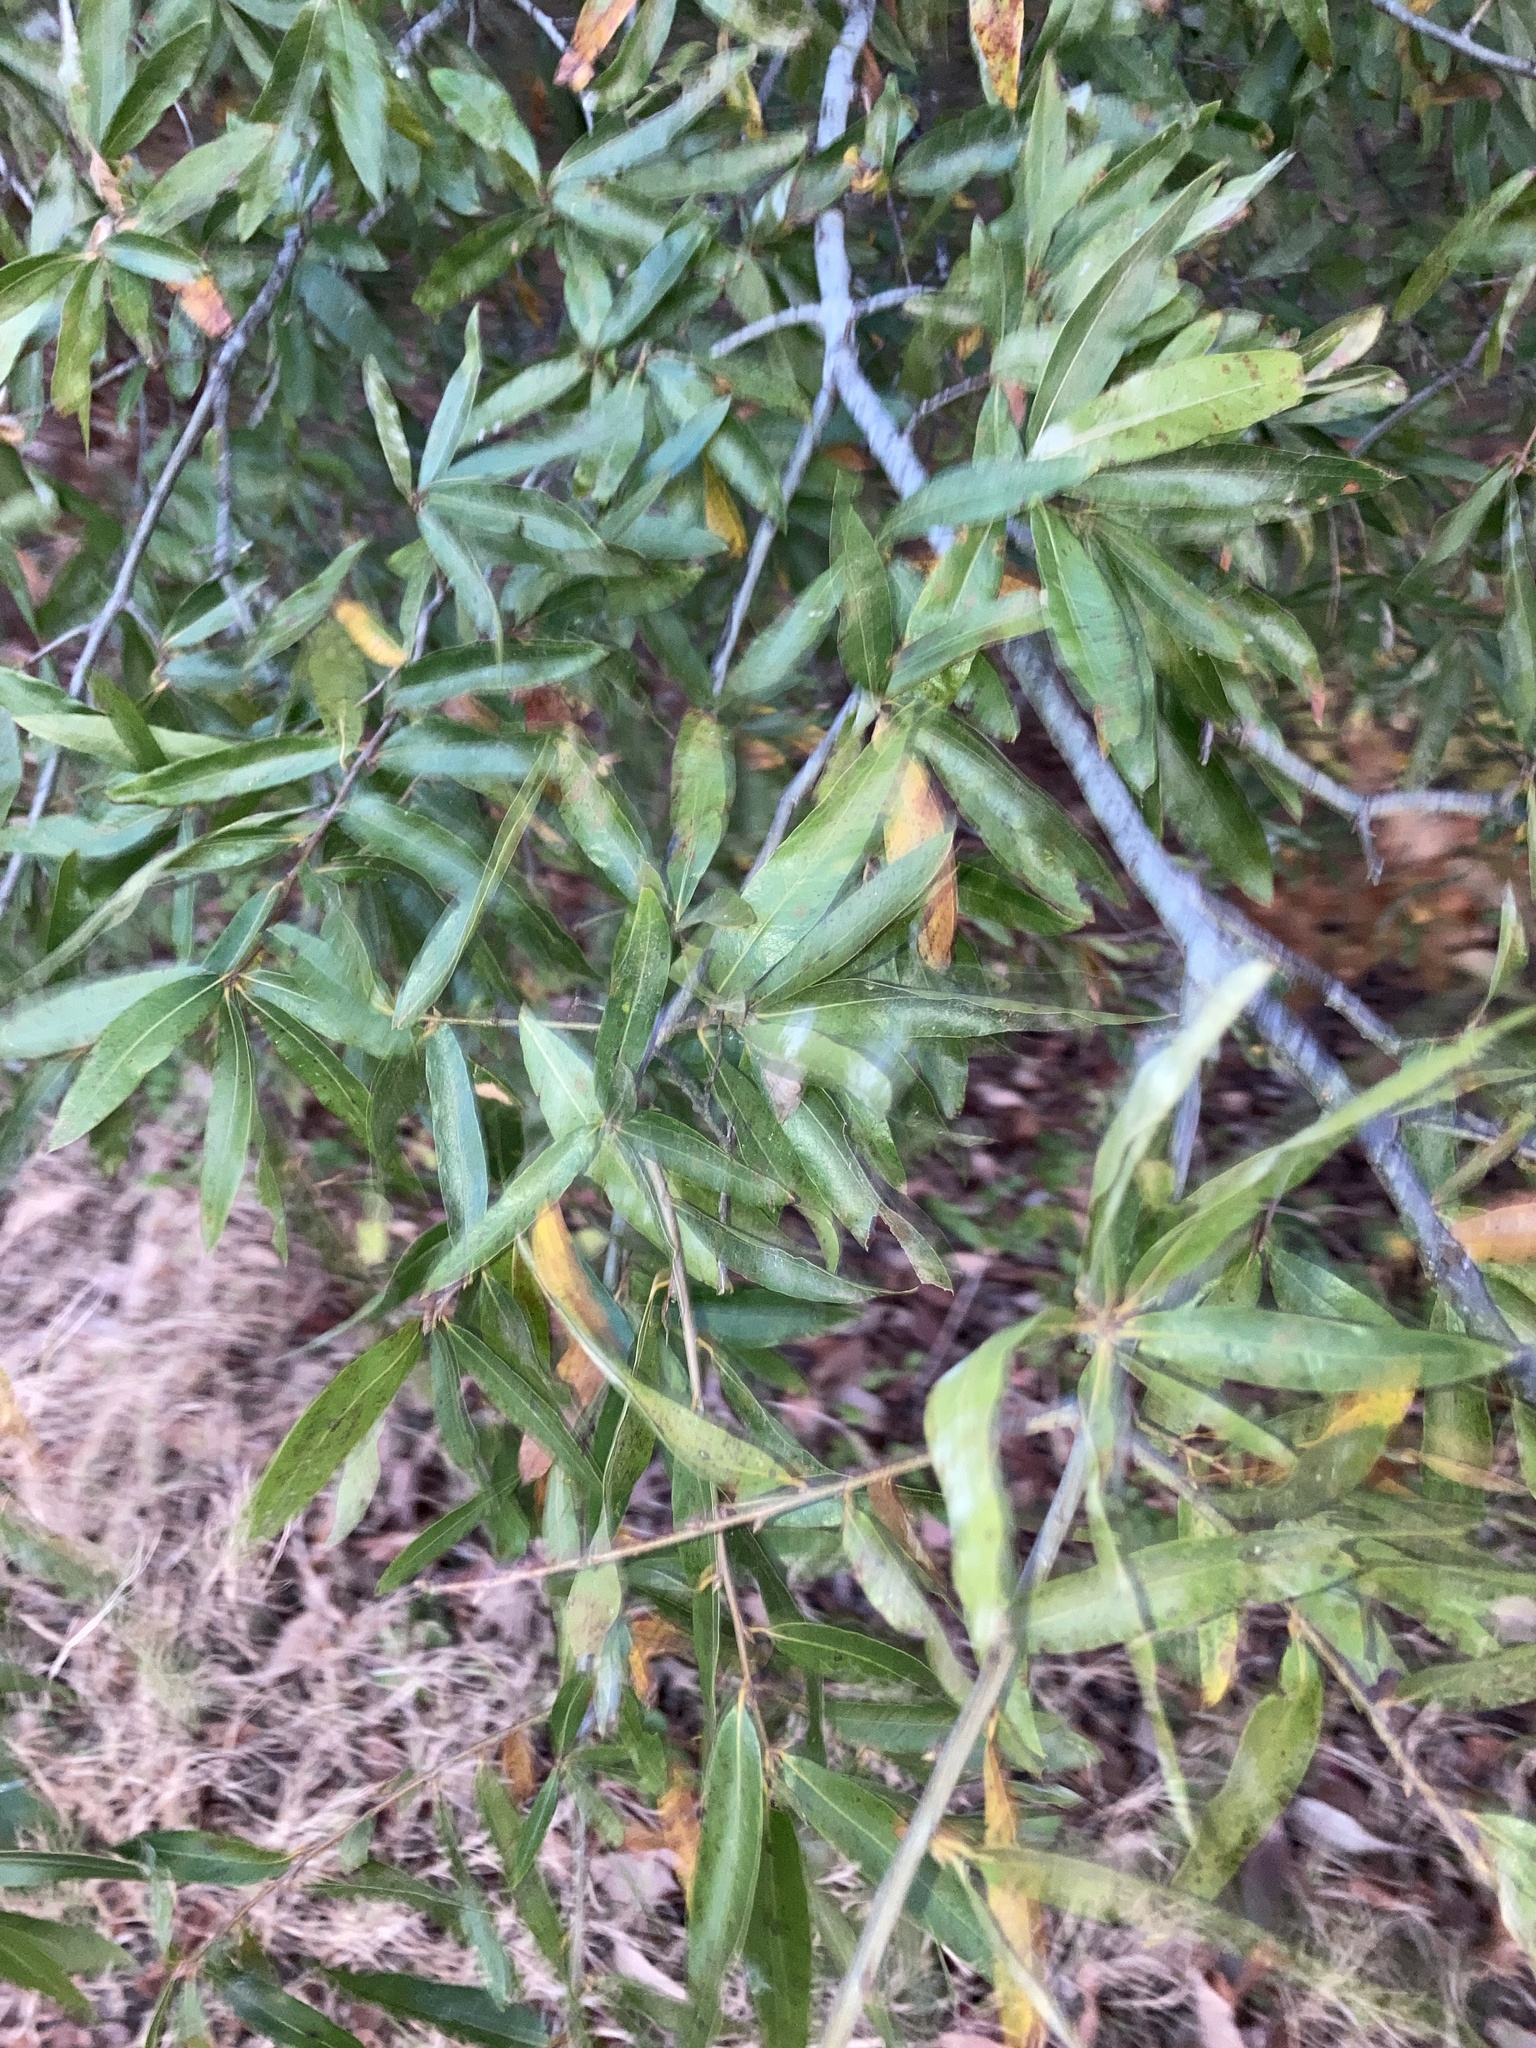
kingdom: Plantae
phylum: Tracheophyta
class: Magnoliopsida
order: Fagales
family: Fagaceae
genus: Quercus
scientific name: Quercus phellos
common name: Willow oak
